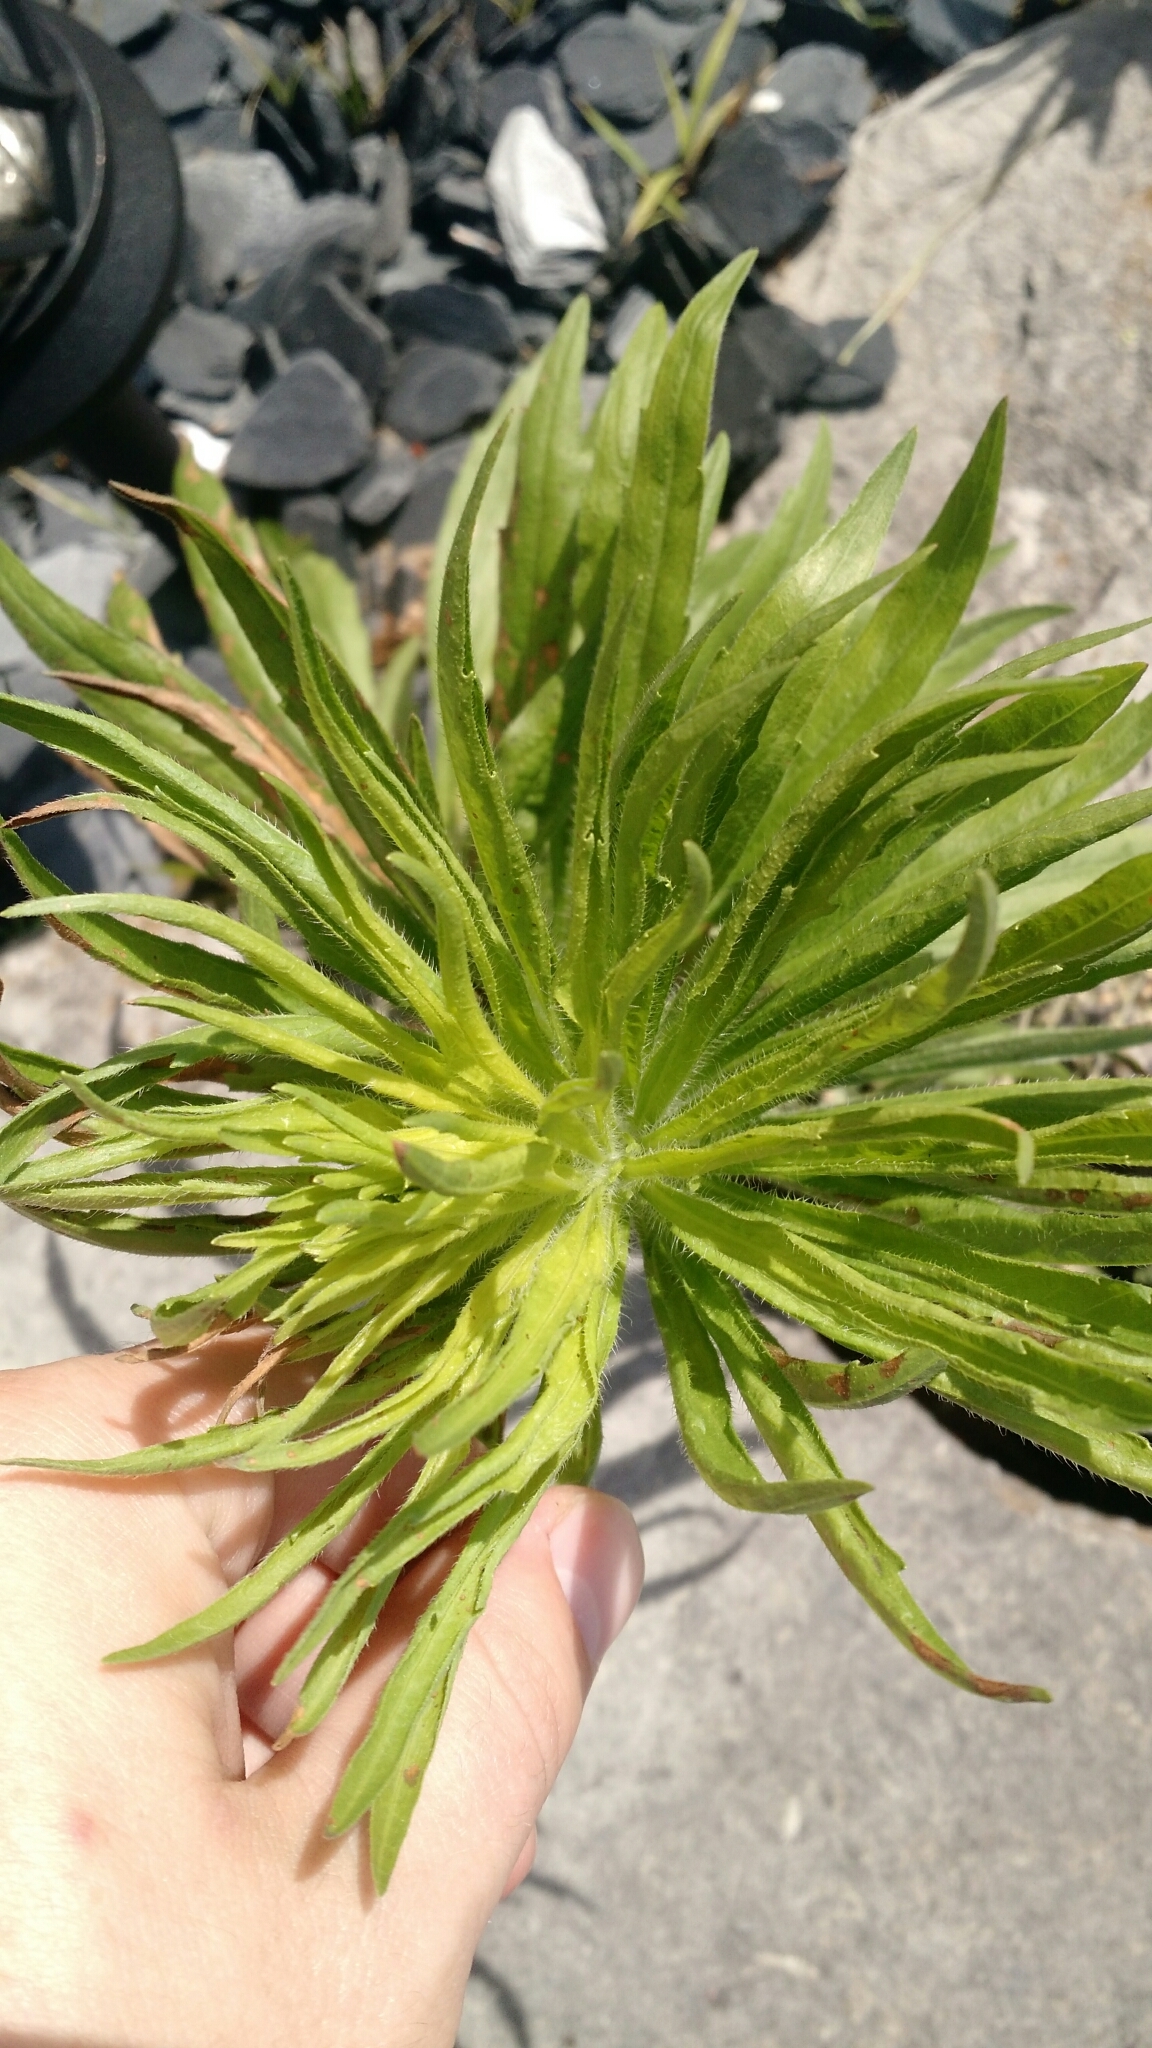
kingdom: Plantae
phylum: Tracheophyta
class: Magnoliopsida
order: Asterales
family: Asteraceae
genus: Erigeron
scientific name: Erigeron canadensis
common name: Canadian fleabane
